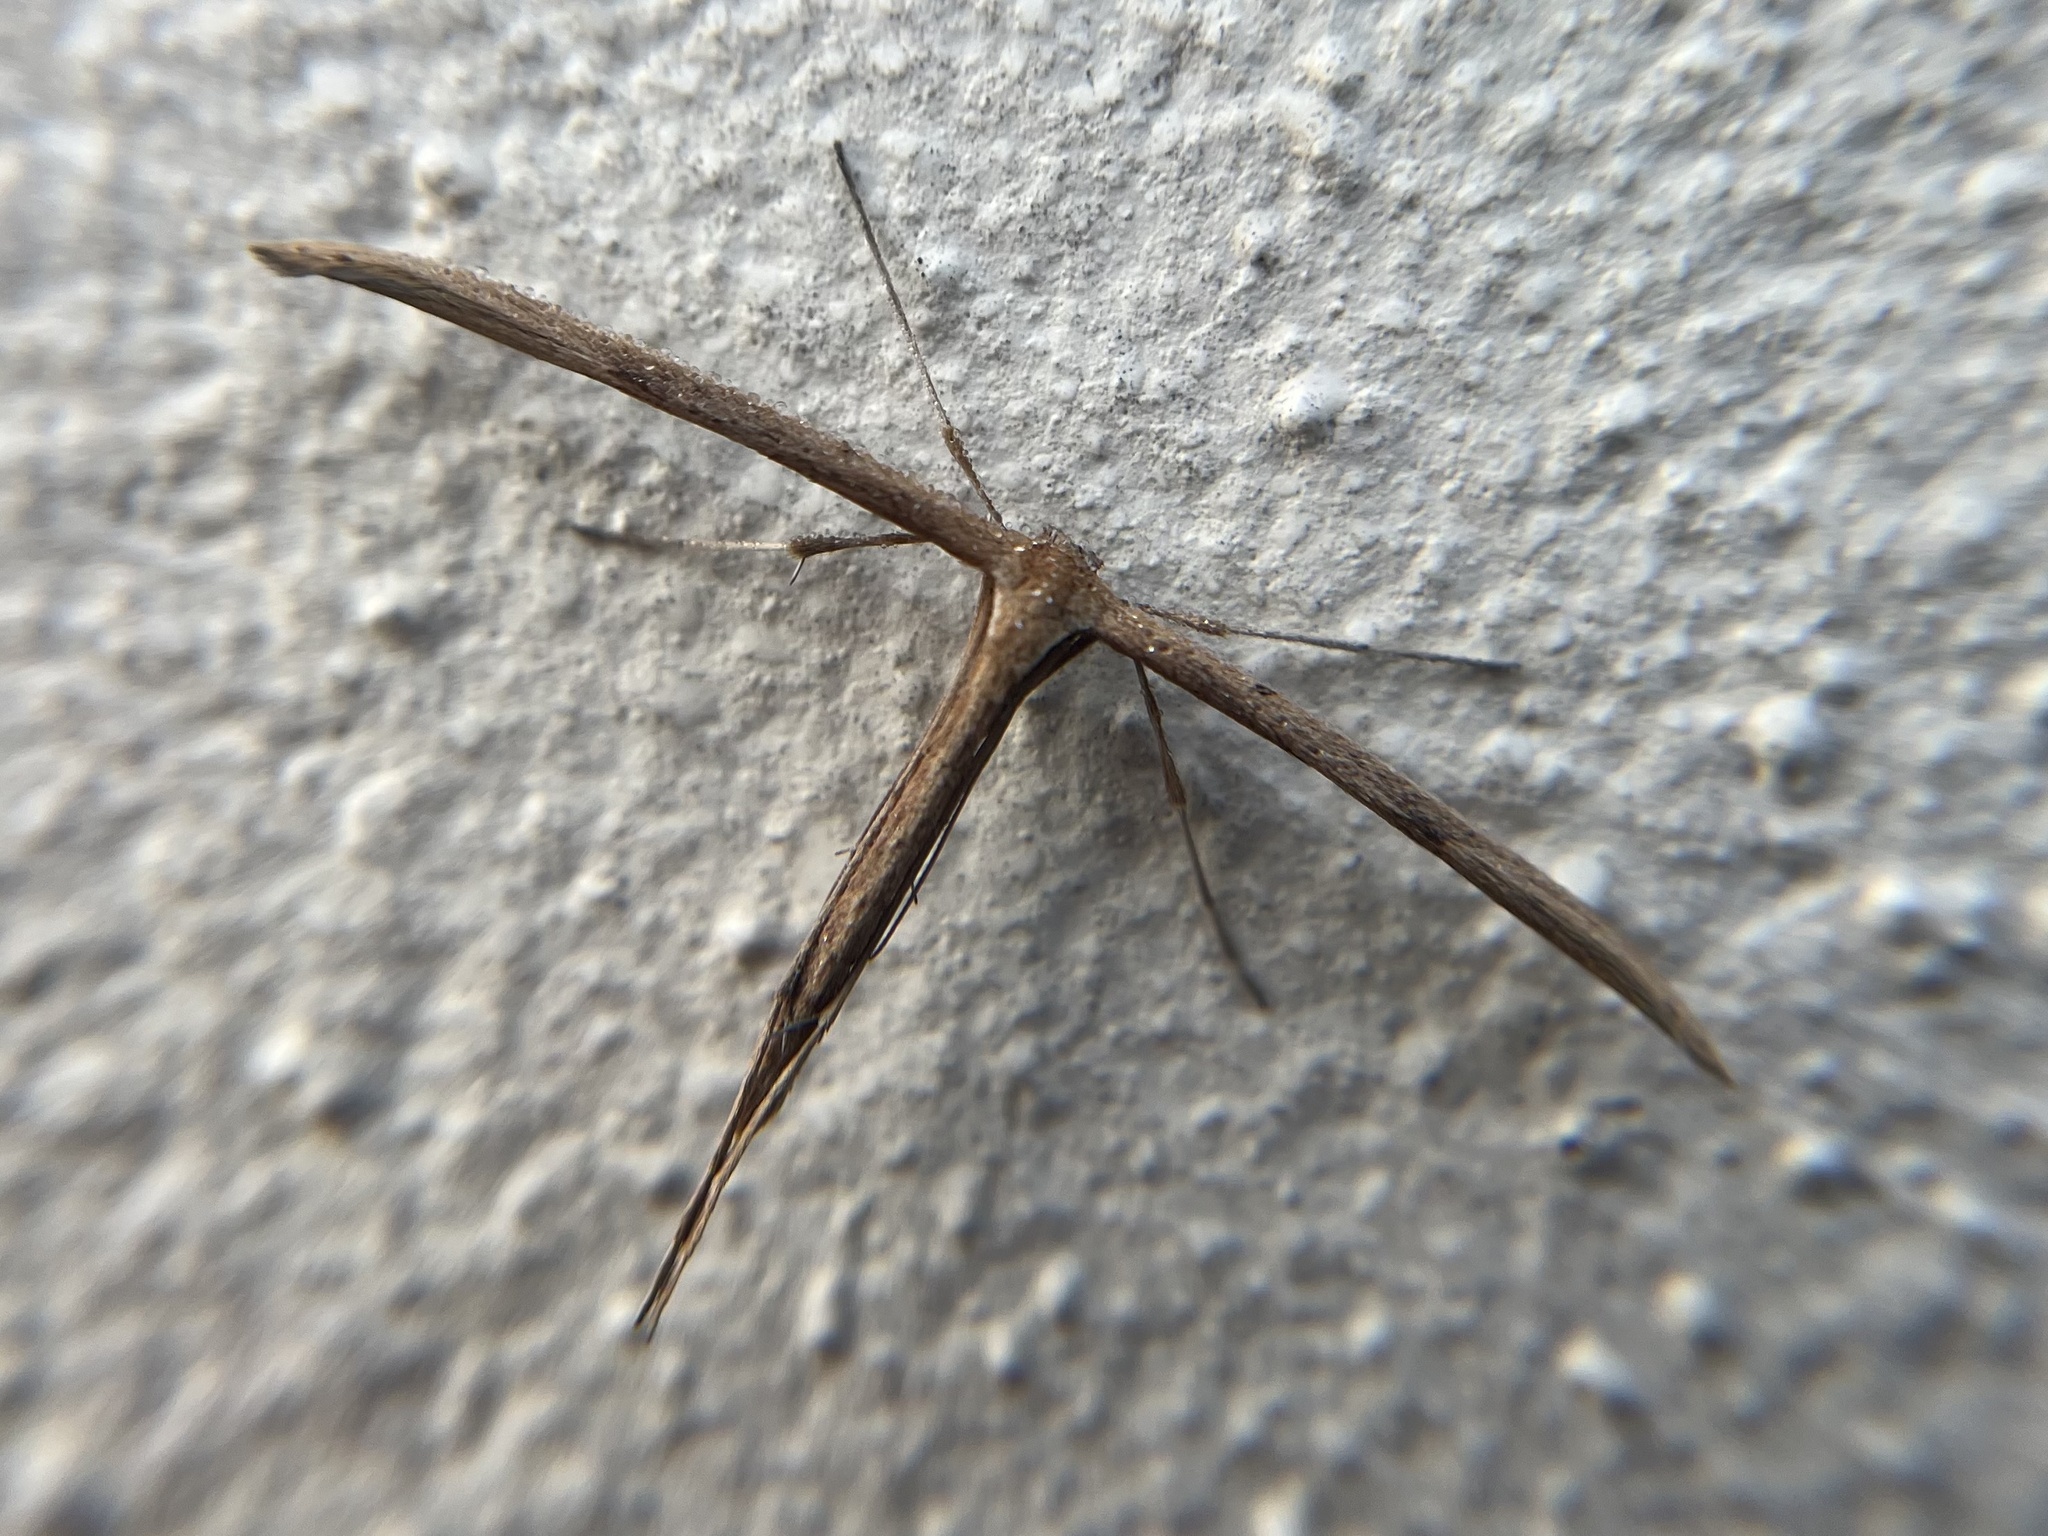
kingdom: Animalia
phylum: Arthropoda
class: Insecta
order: Lepidoptera
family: Pterophoridae
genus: Emmelina
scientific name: Emmelina monodactyla
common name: Common plume
